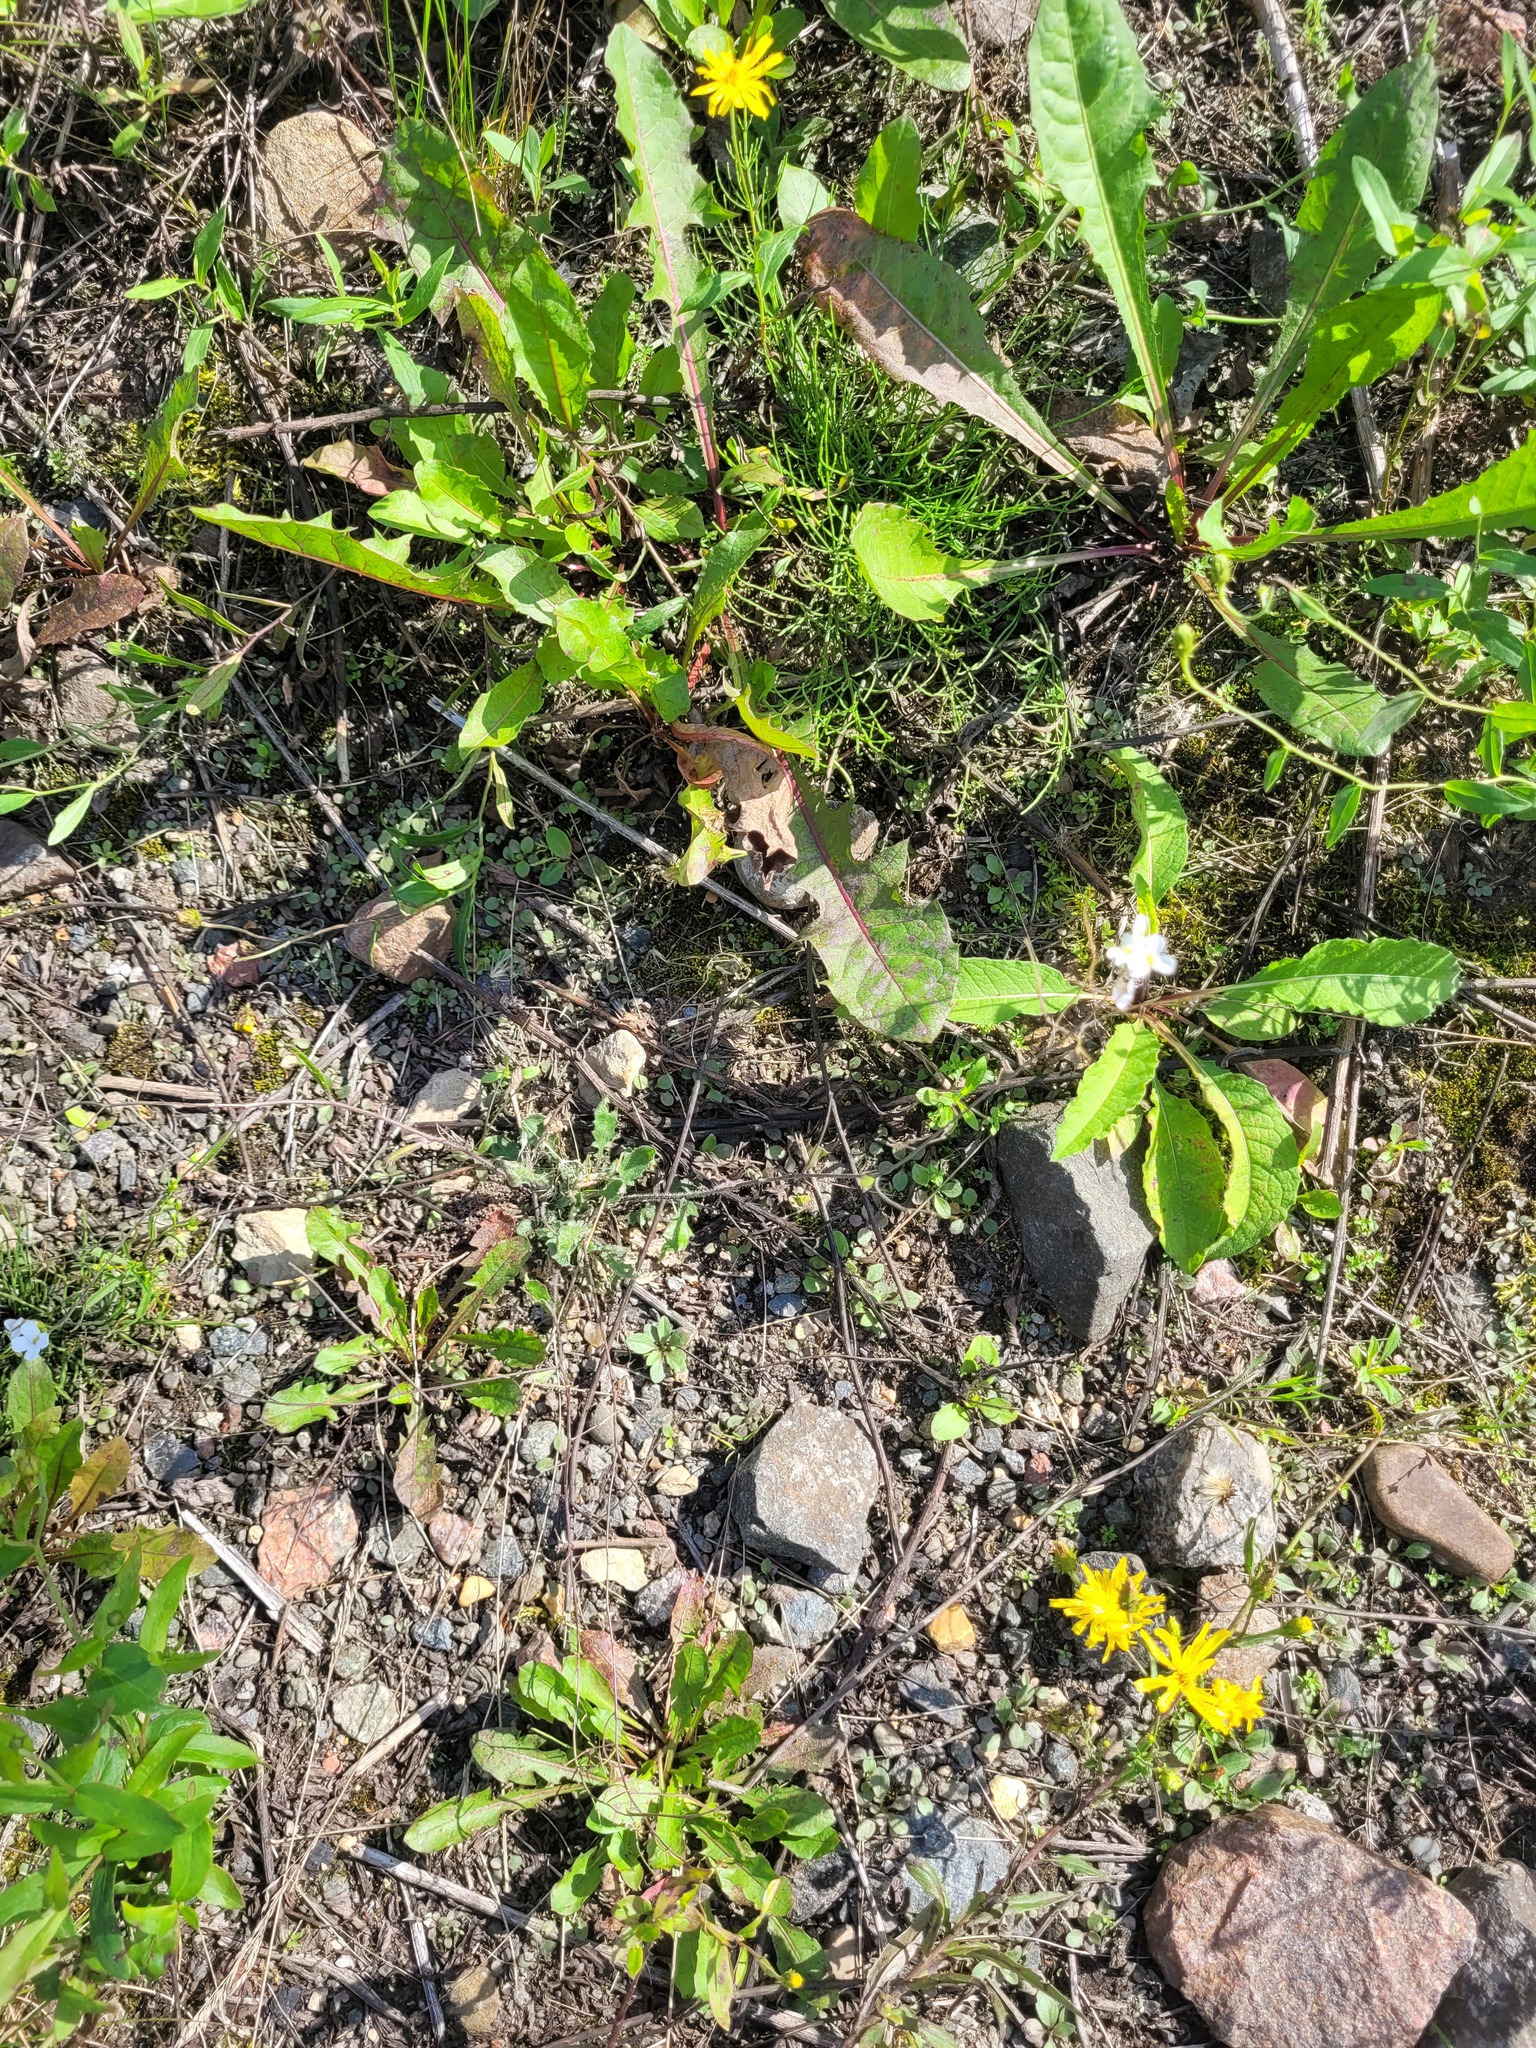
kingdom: Plantae
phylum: Tracheophyta
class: Magnoliopsida
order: Brassicales
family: Brassicaceae
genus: Arabidopsis
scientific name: Arabidopsis arenosa
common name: Sand rock-cress
